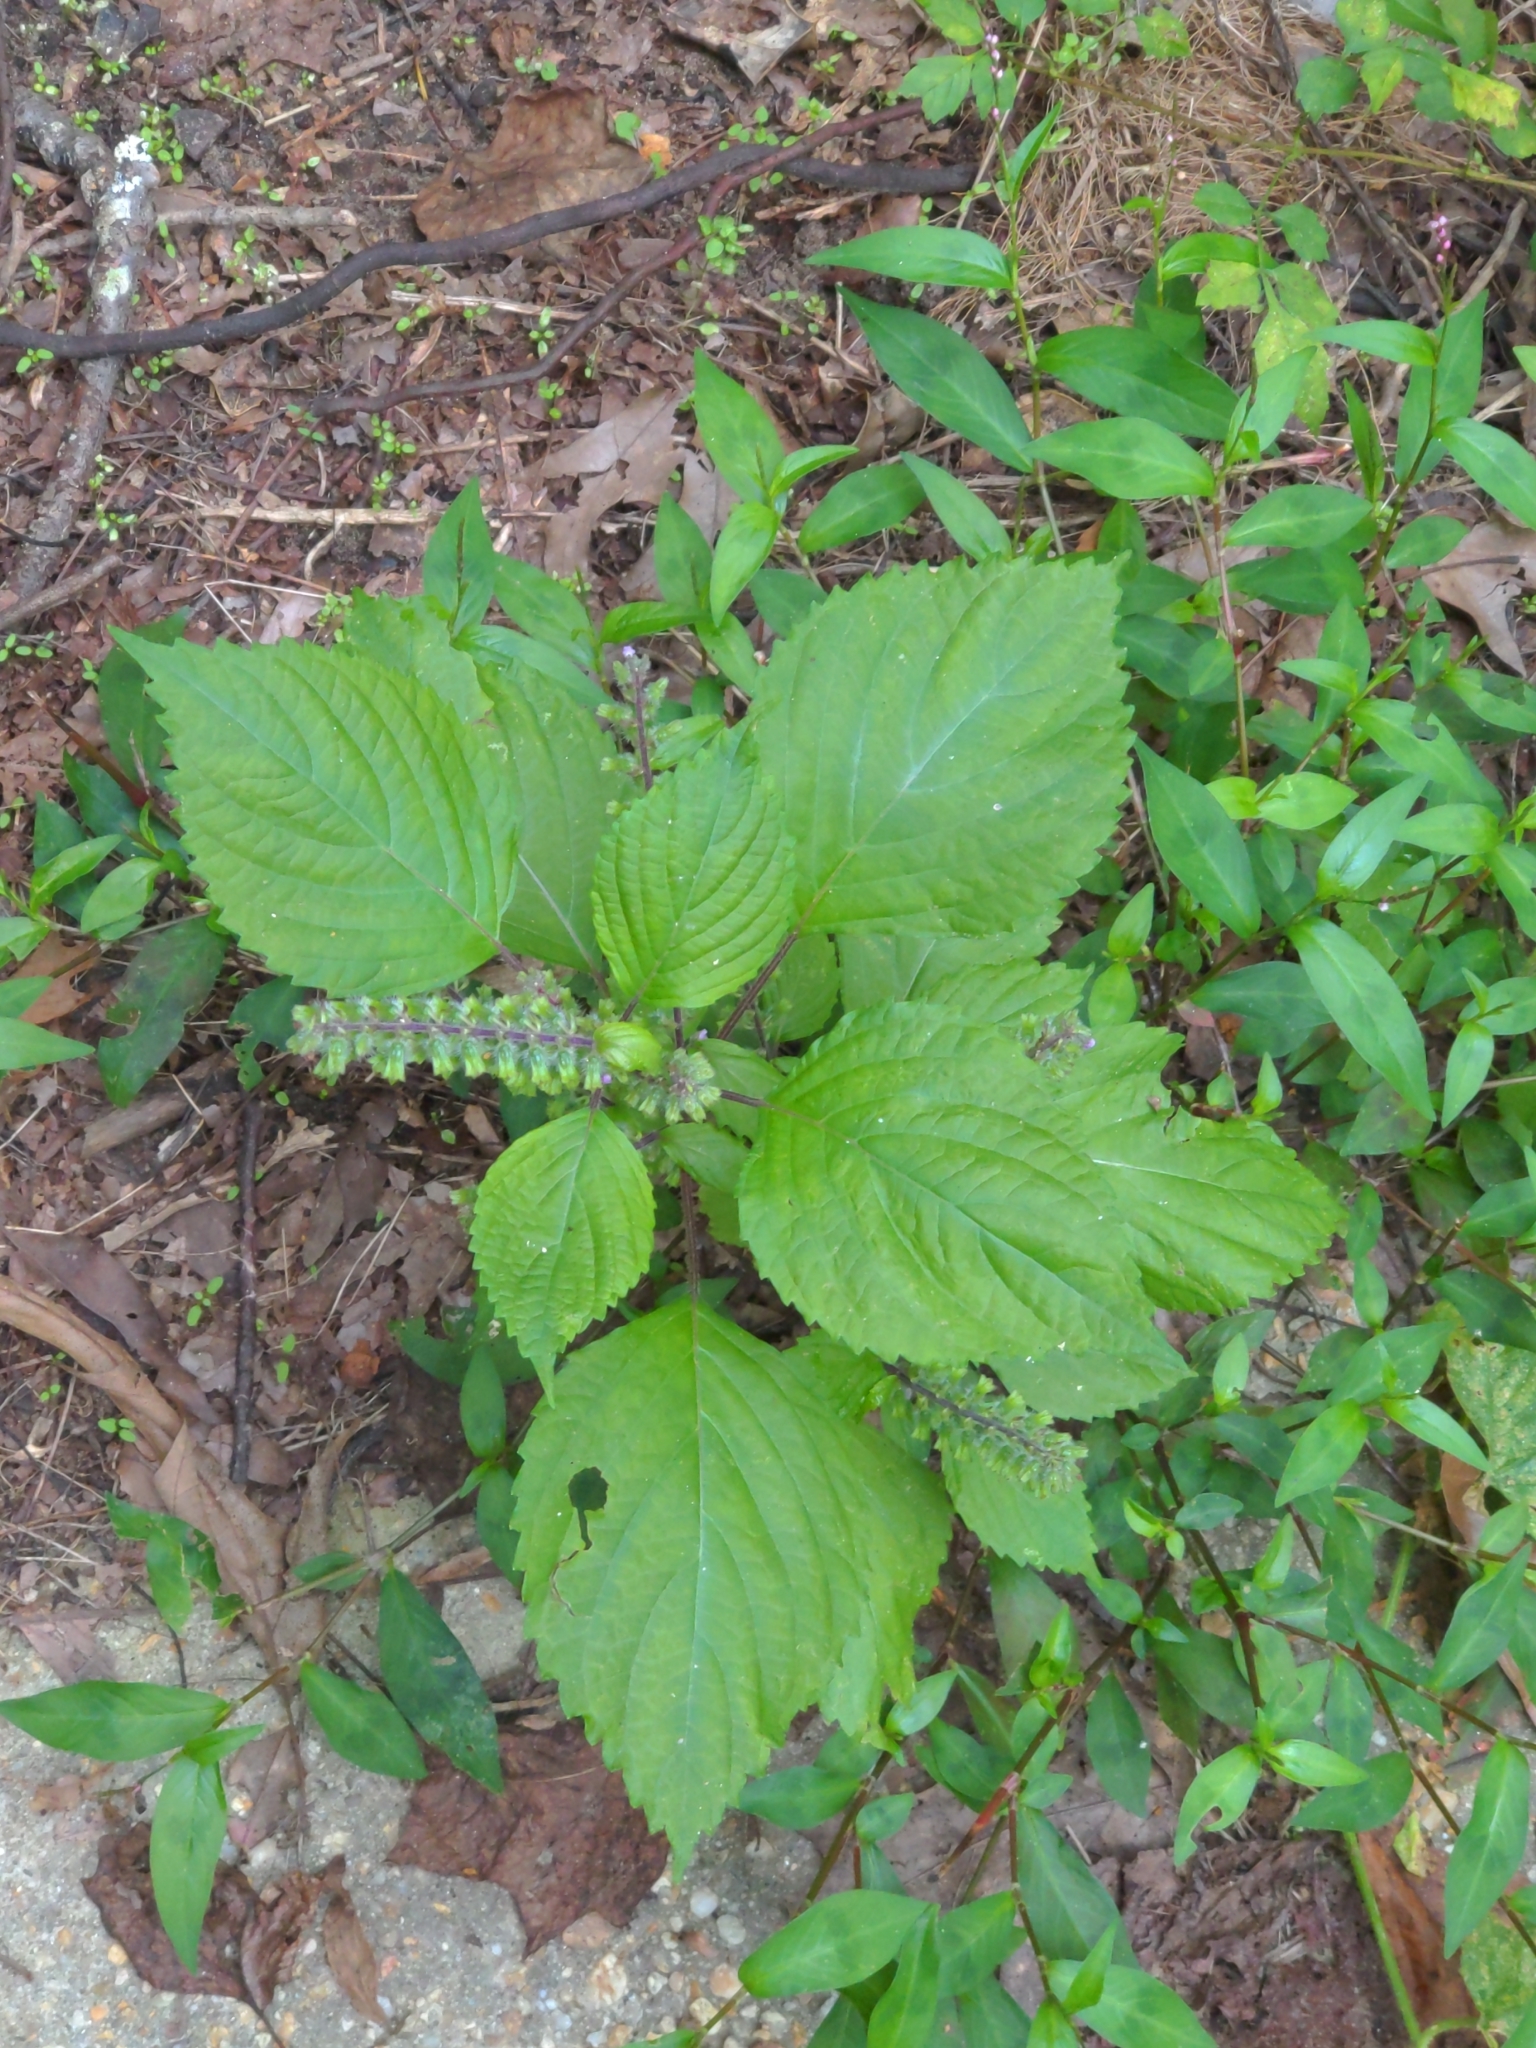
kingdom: Plantae
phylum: Tracheophyta
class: Magnoliopsida
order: Lamiales
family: Lamiaceae
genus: Perilla
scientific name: Perilla frutescens
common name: Perilla
